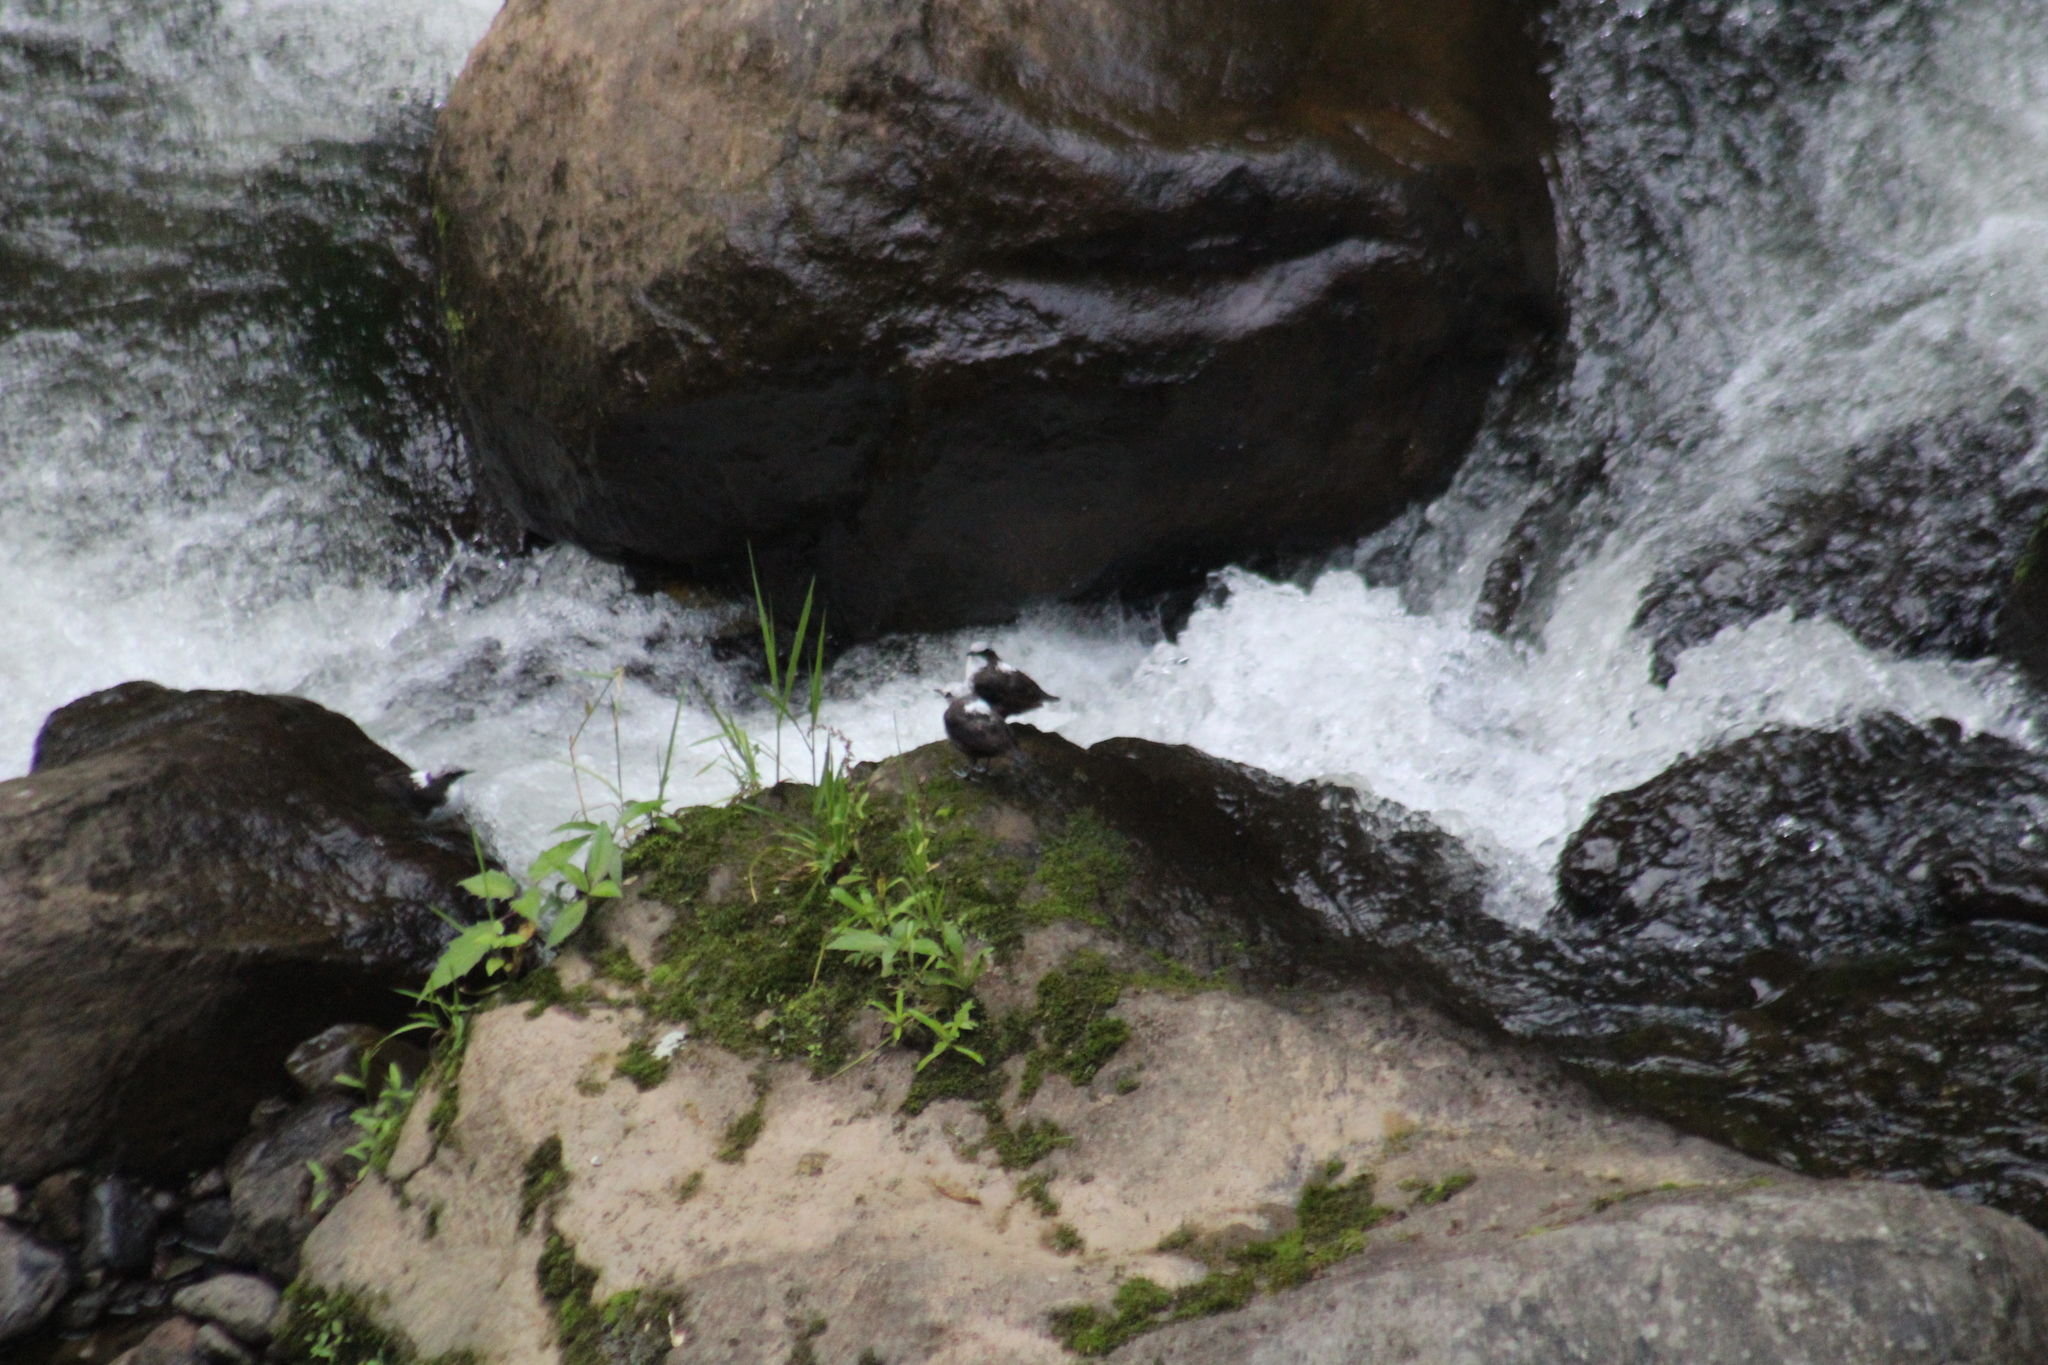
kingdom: Animalia
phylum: Chordata
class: Aves
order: Passeriformes
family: Cinclidae
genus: Cinclus
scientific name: Cinclus leucocephalus
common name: White-capped dipper
